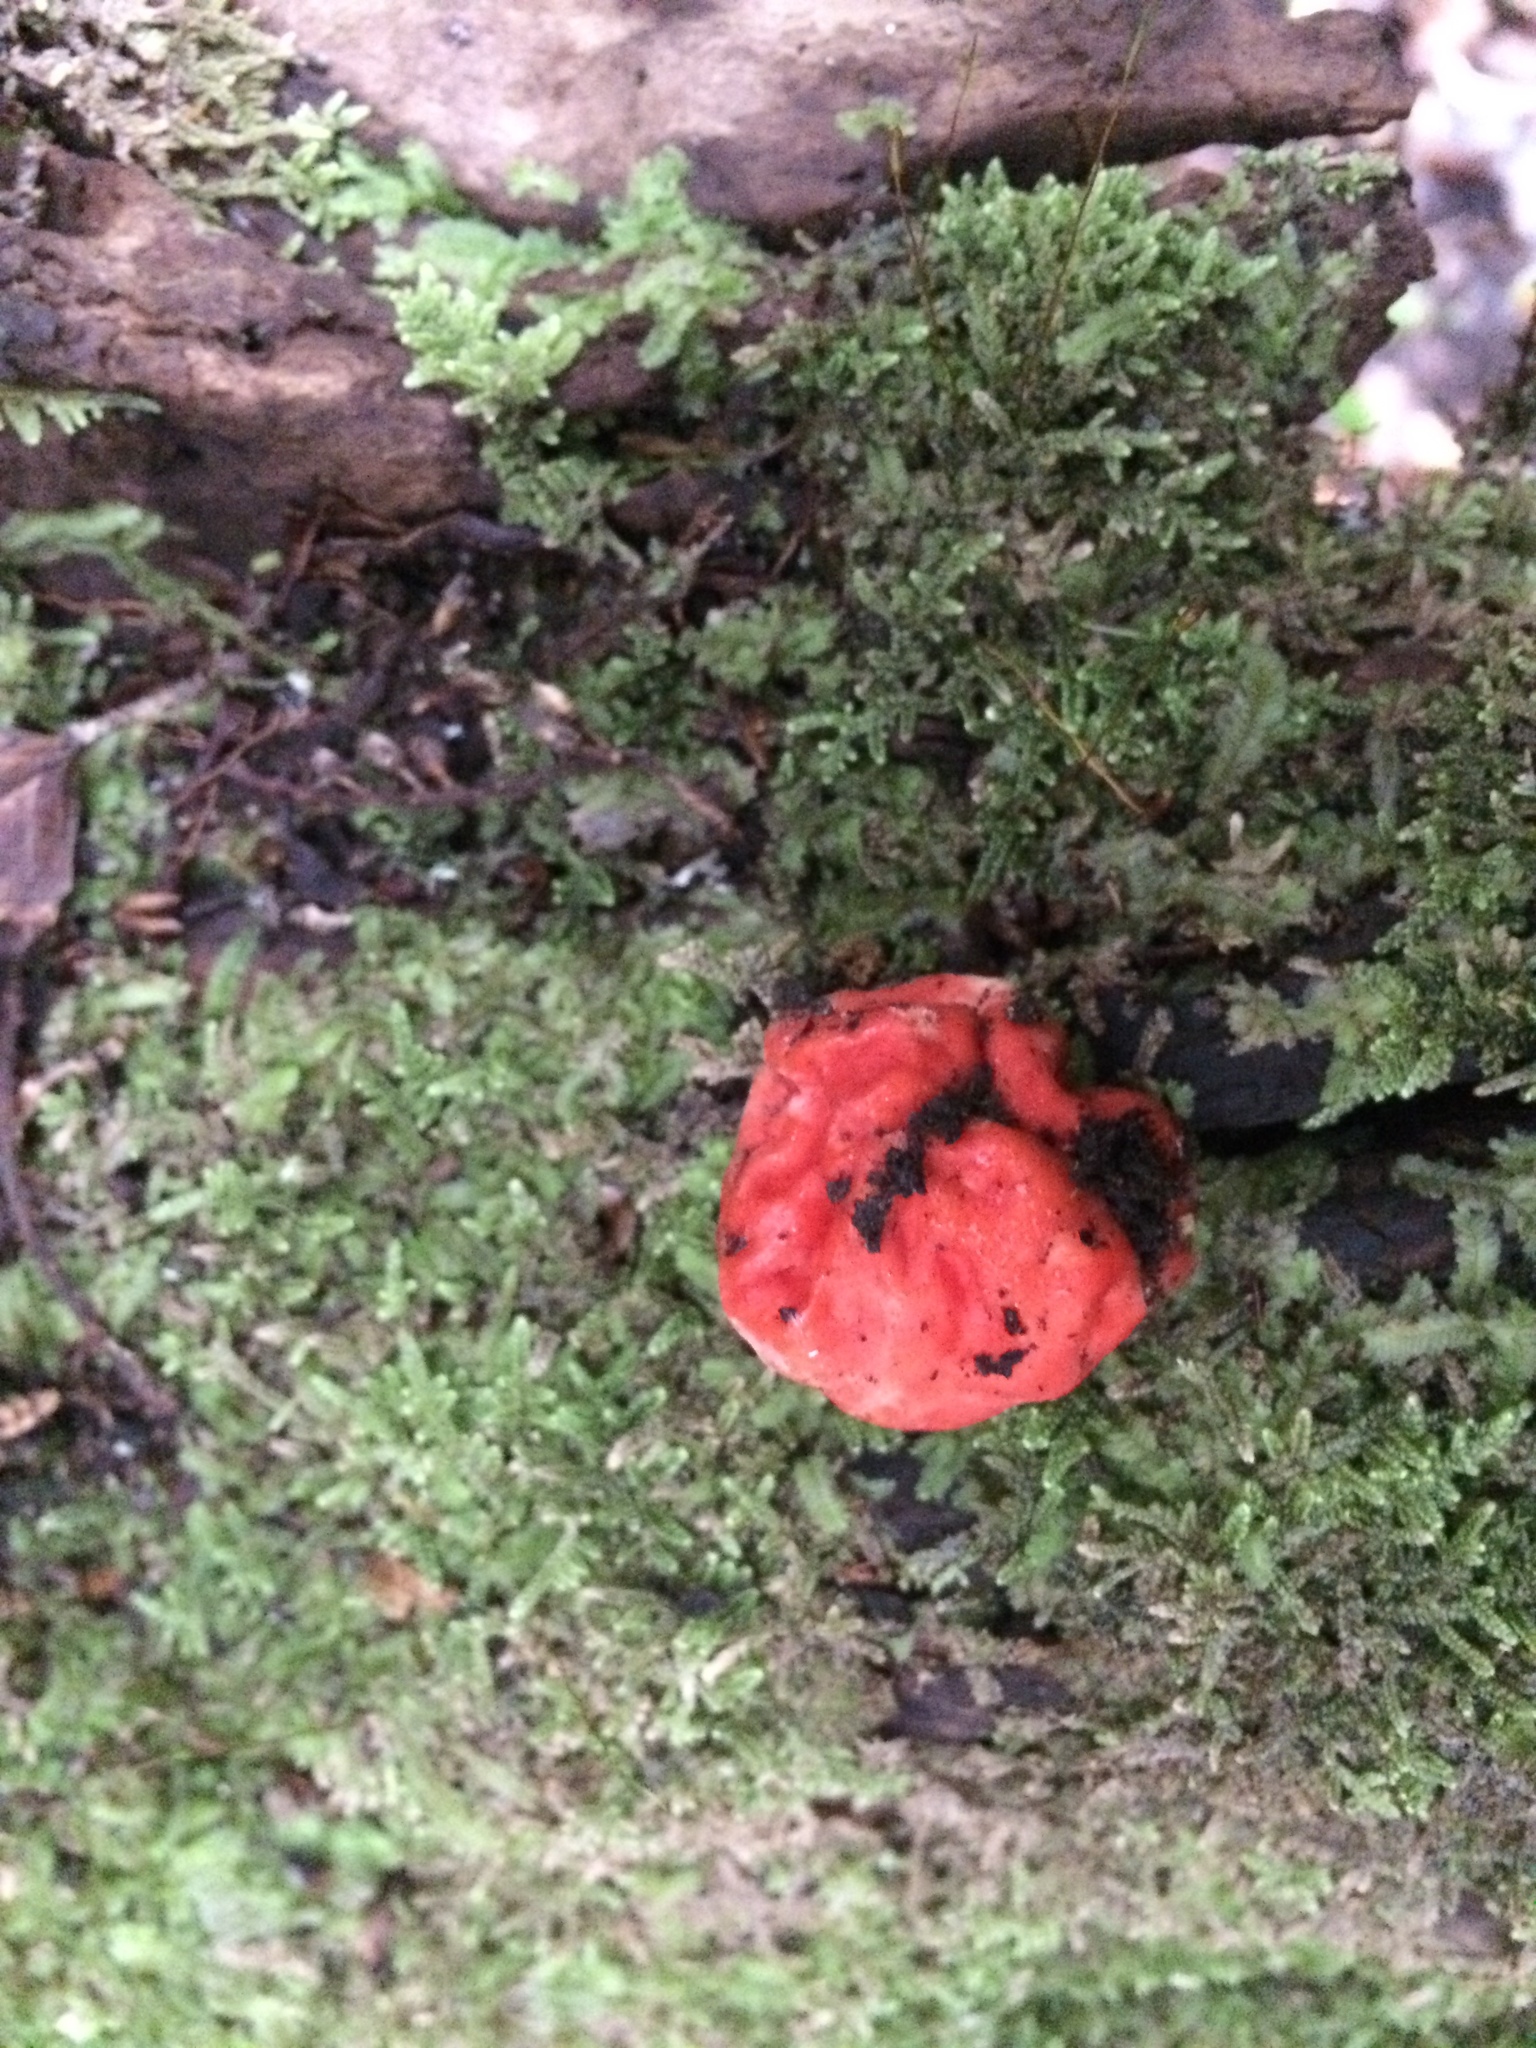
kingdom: Fungi
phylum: Ascomycota
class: Pezizomycetes
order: Pezizales
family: Pyronemataceae
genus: Paurocotylis
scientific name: Paurocotylis pila
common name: Scarlet berry truffle
